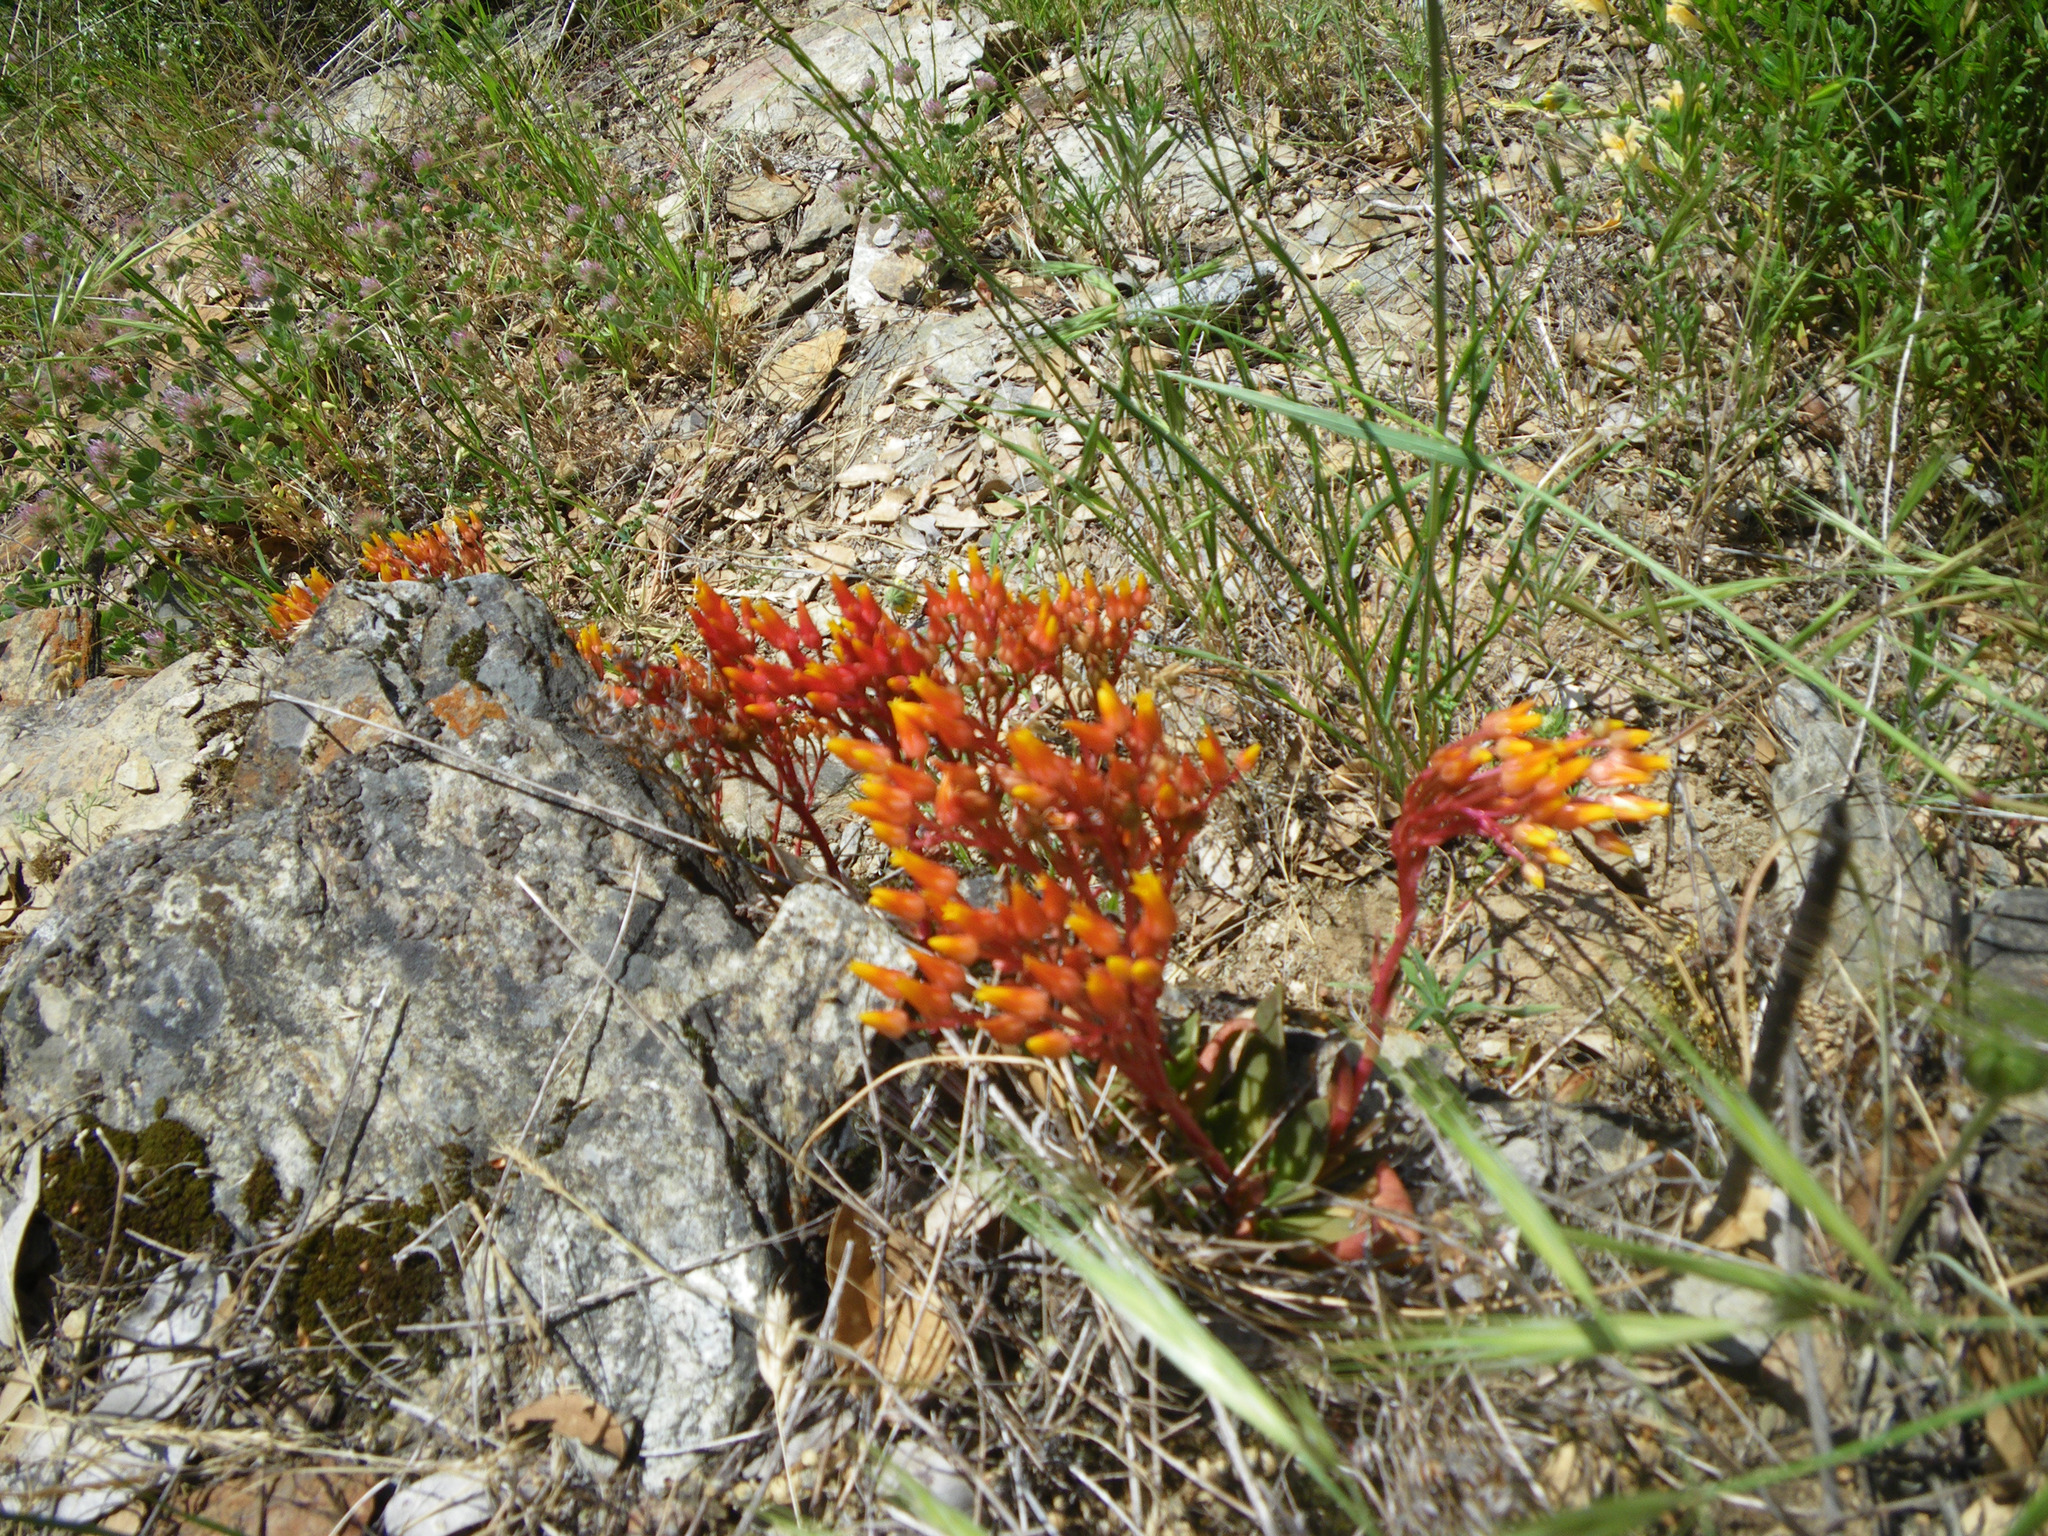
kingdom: Plantae
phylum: Tracheophyta
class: Magnoliopsida
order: Saxifragales
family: Crassulaceae
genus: Dudleya
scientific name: Dudleya cymosa
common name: Canyon dudleya
